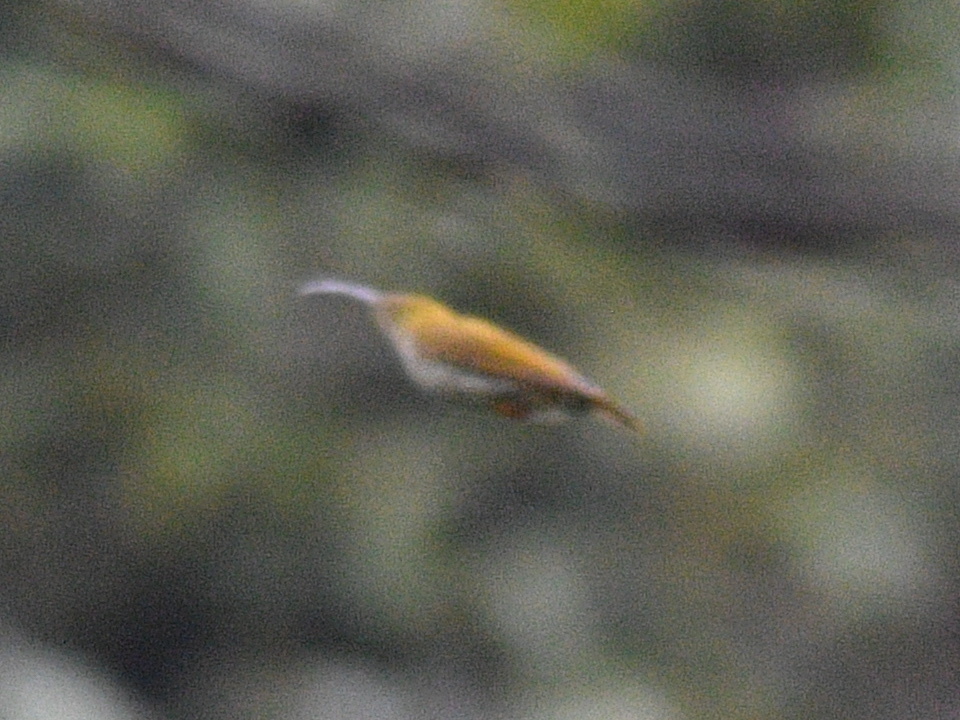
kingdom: Animalia
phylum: Chordata
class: Aves
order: Passeriformes
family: Nectariniidae
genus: Arachnothera
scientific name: Arachnothera magna
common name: Streaked spiderhunter
